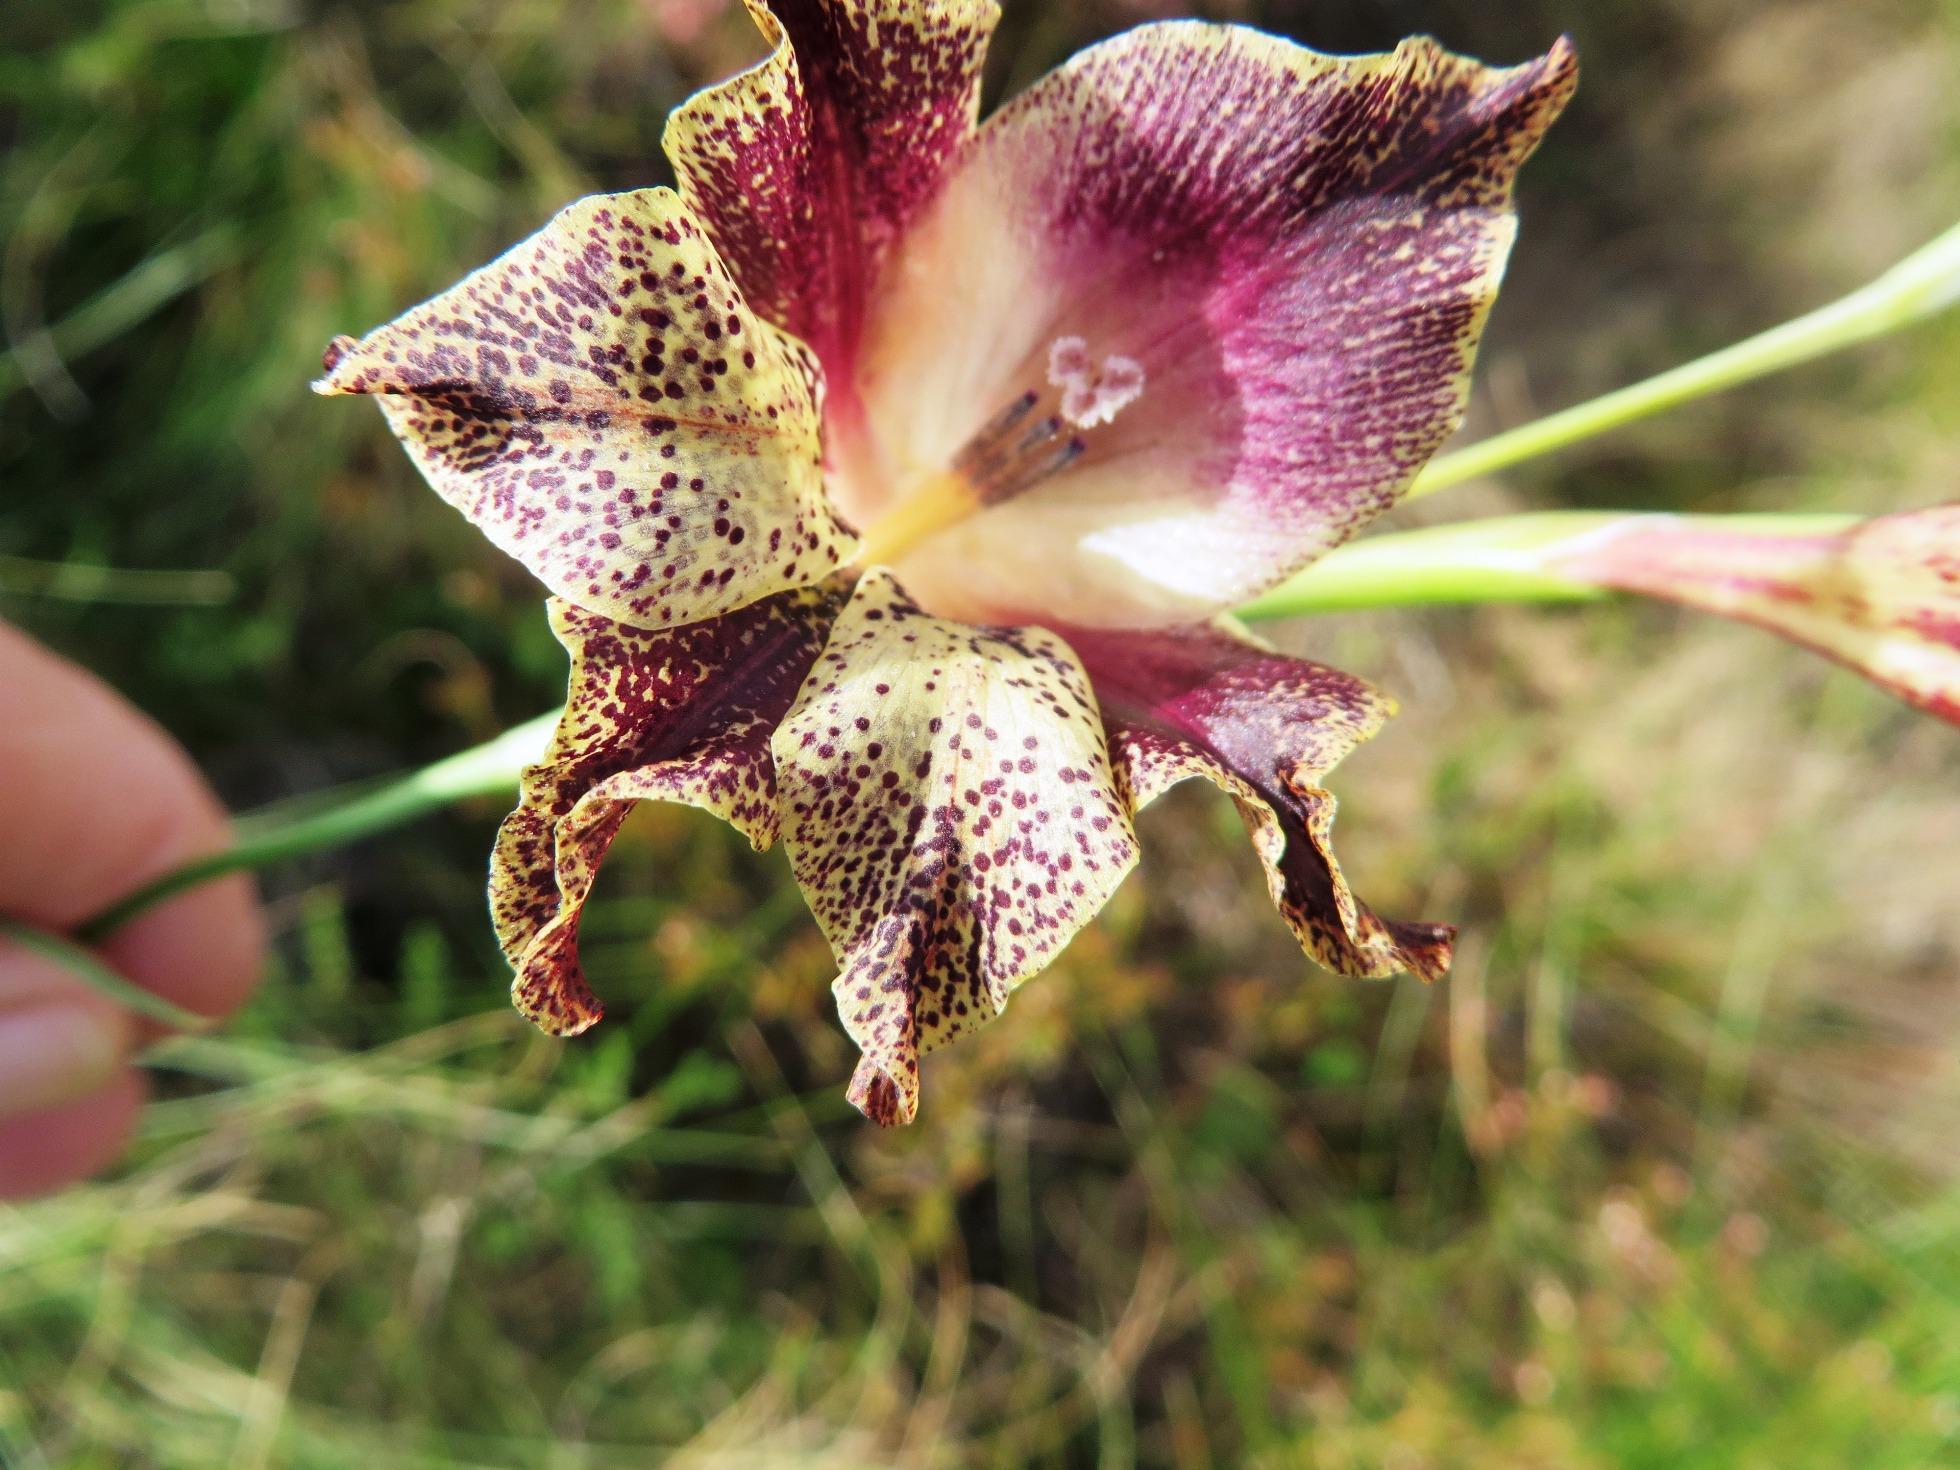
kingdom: Plantae
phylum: Tracheophyta
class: Liliopsida
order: Asparagales
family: Iridaceae
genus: Gladiolus
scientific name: Gladiolus maculatus
